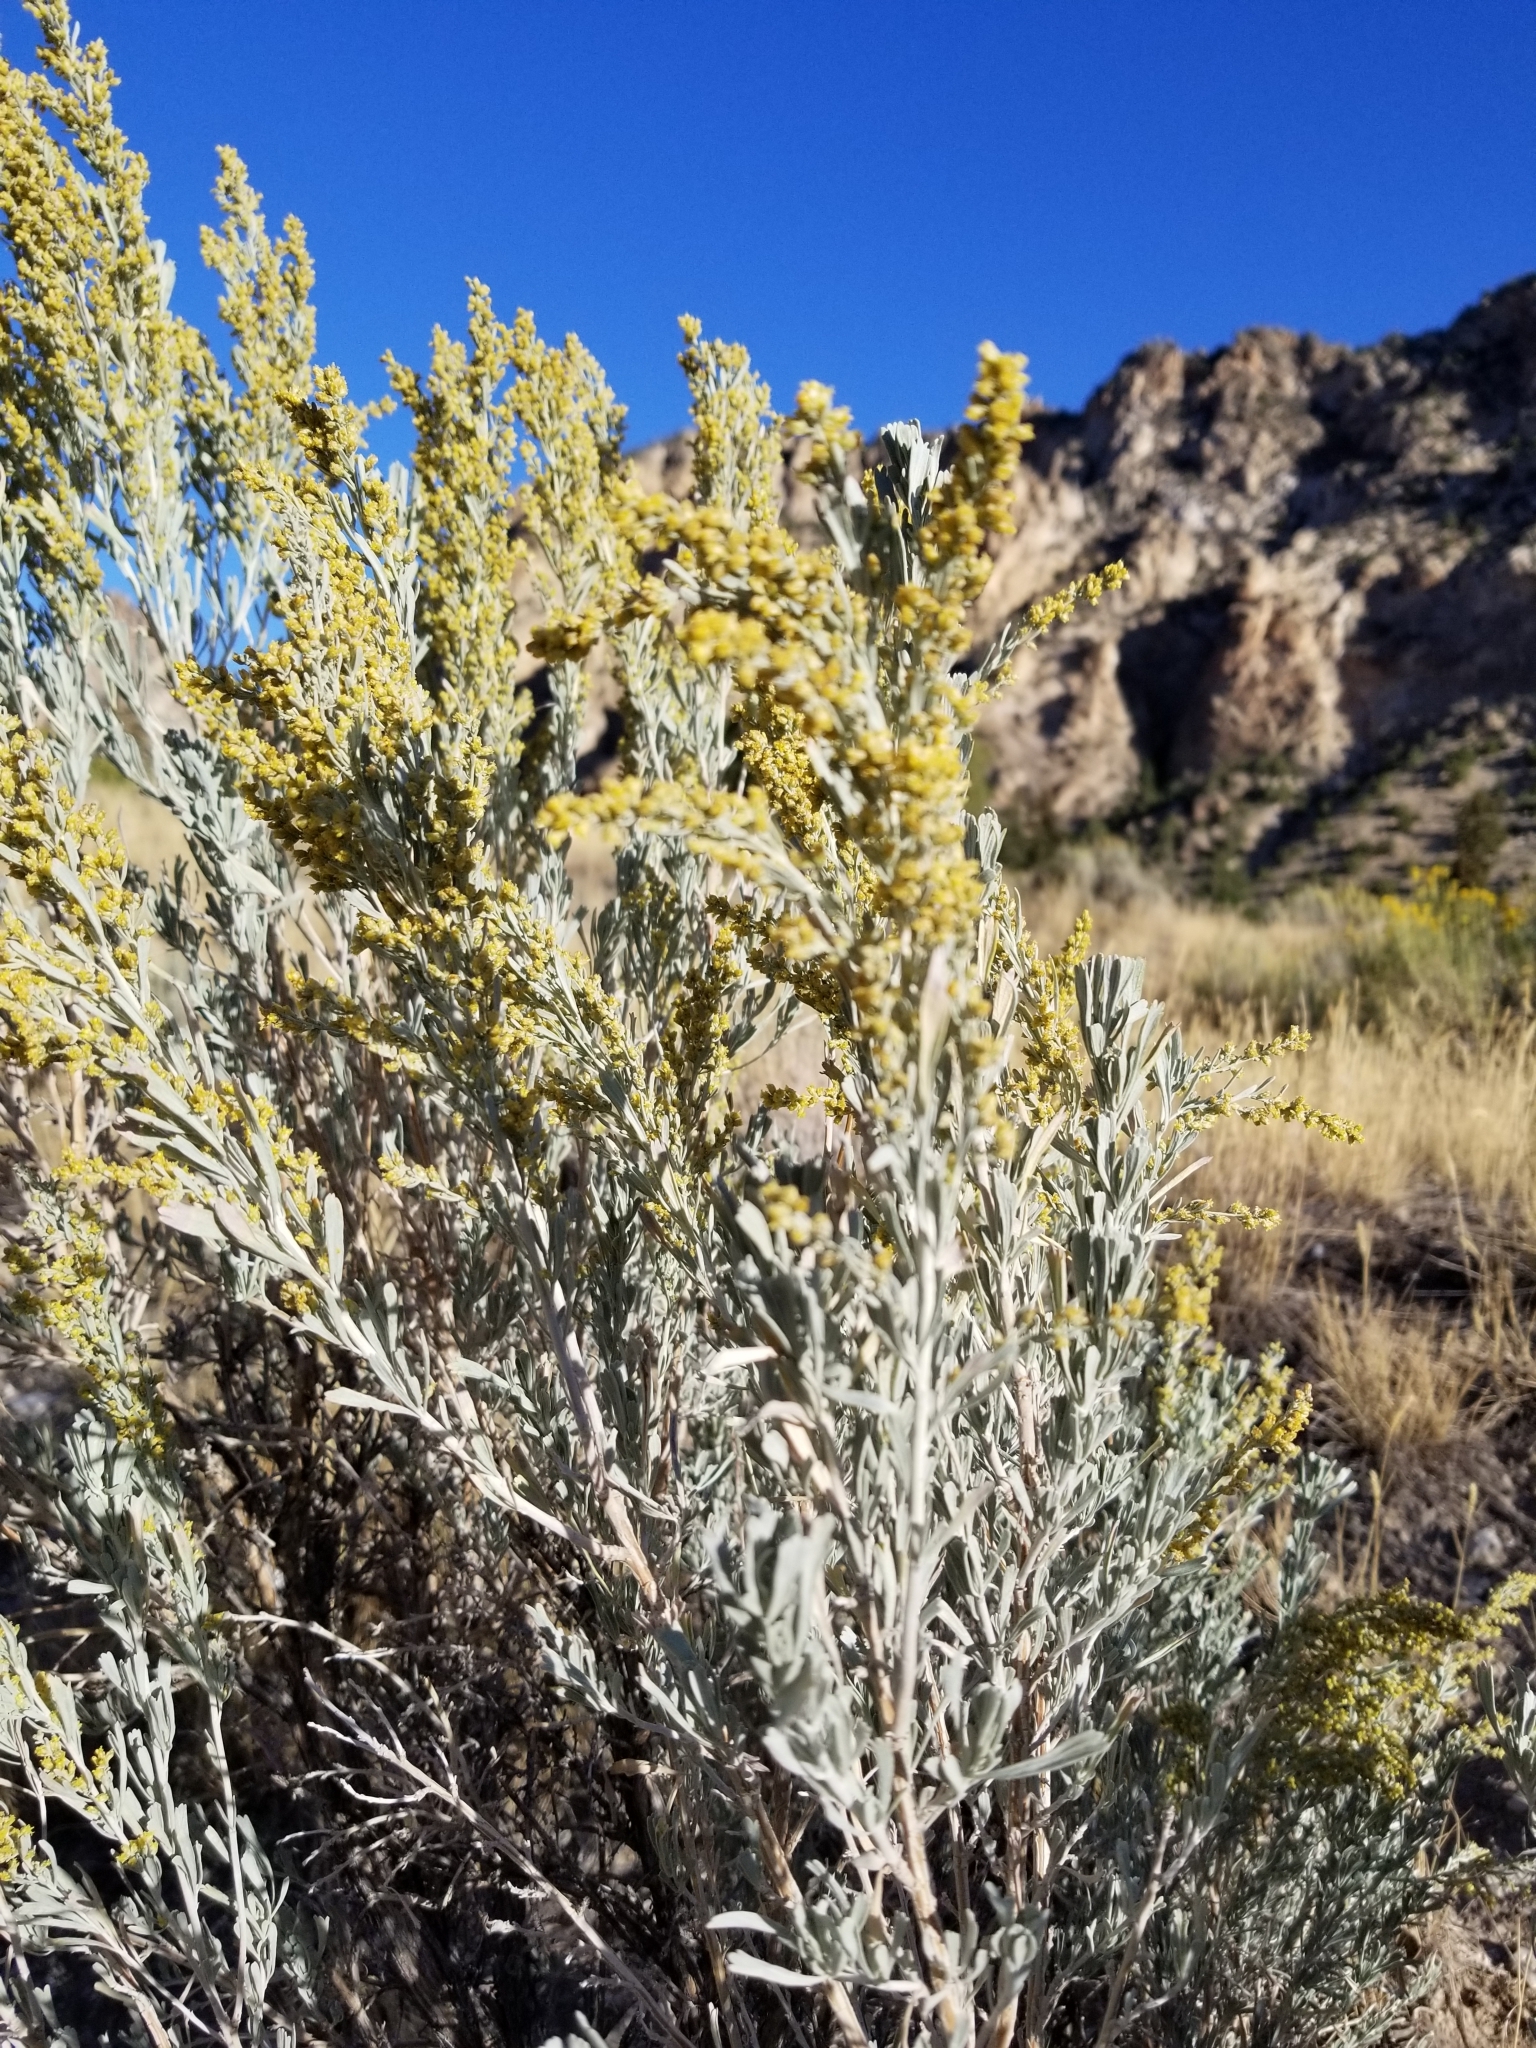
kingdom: Plantae
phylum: Tracheophyta
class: Magnoliopsida
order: Asterales
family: Asteraceae
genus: Artemisia
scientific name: Artemisia tridentata
